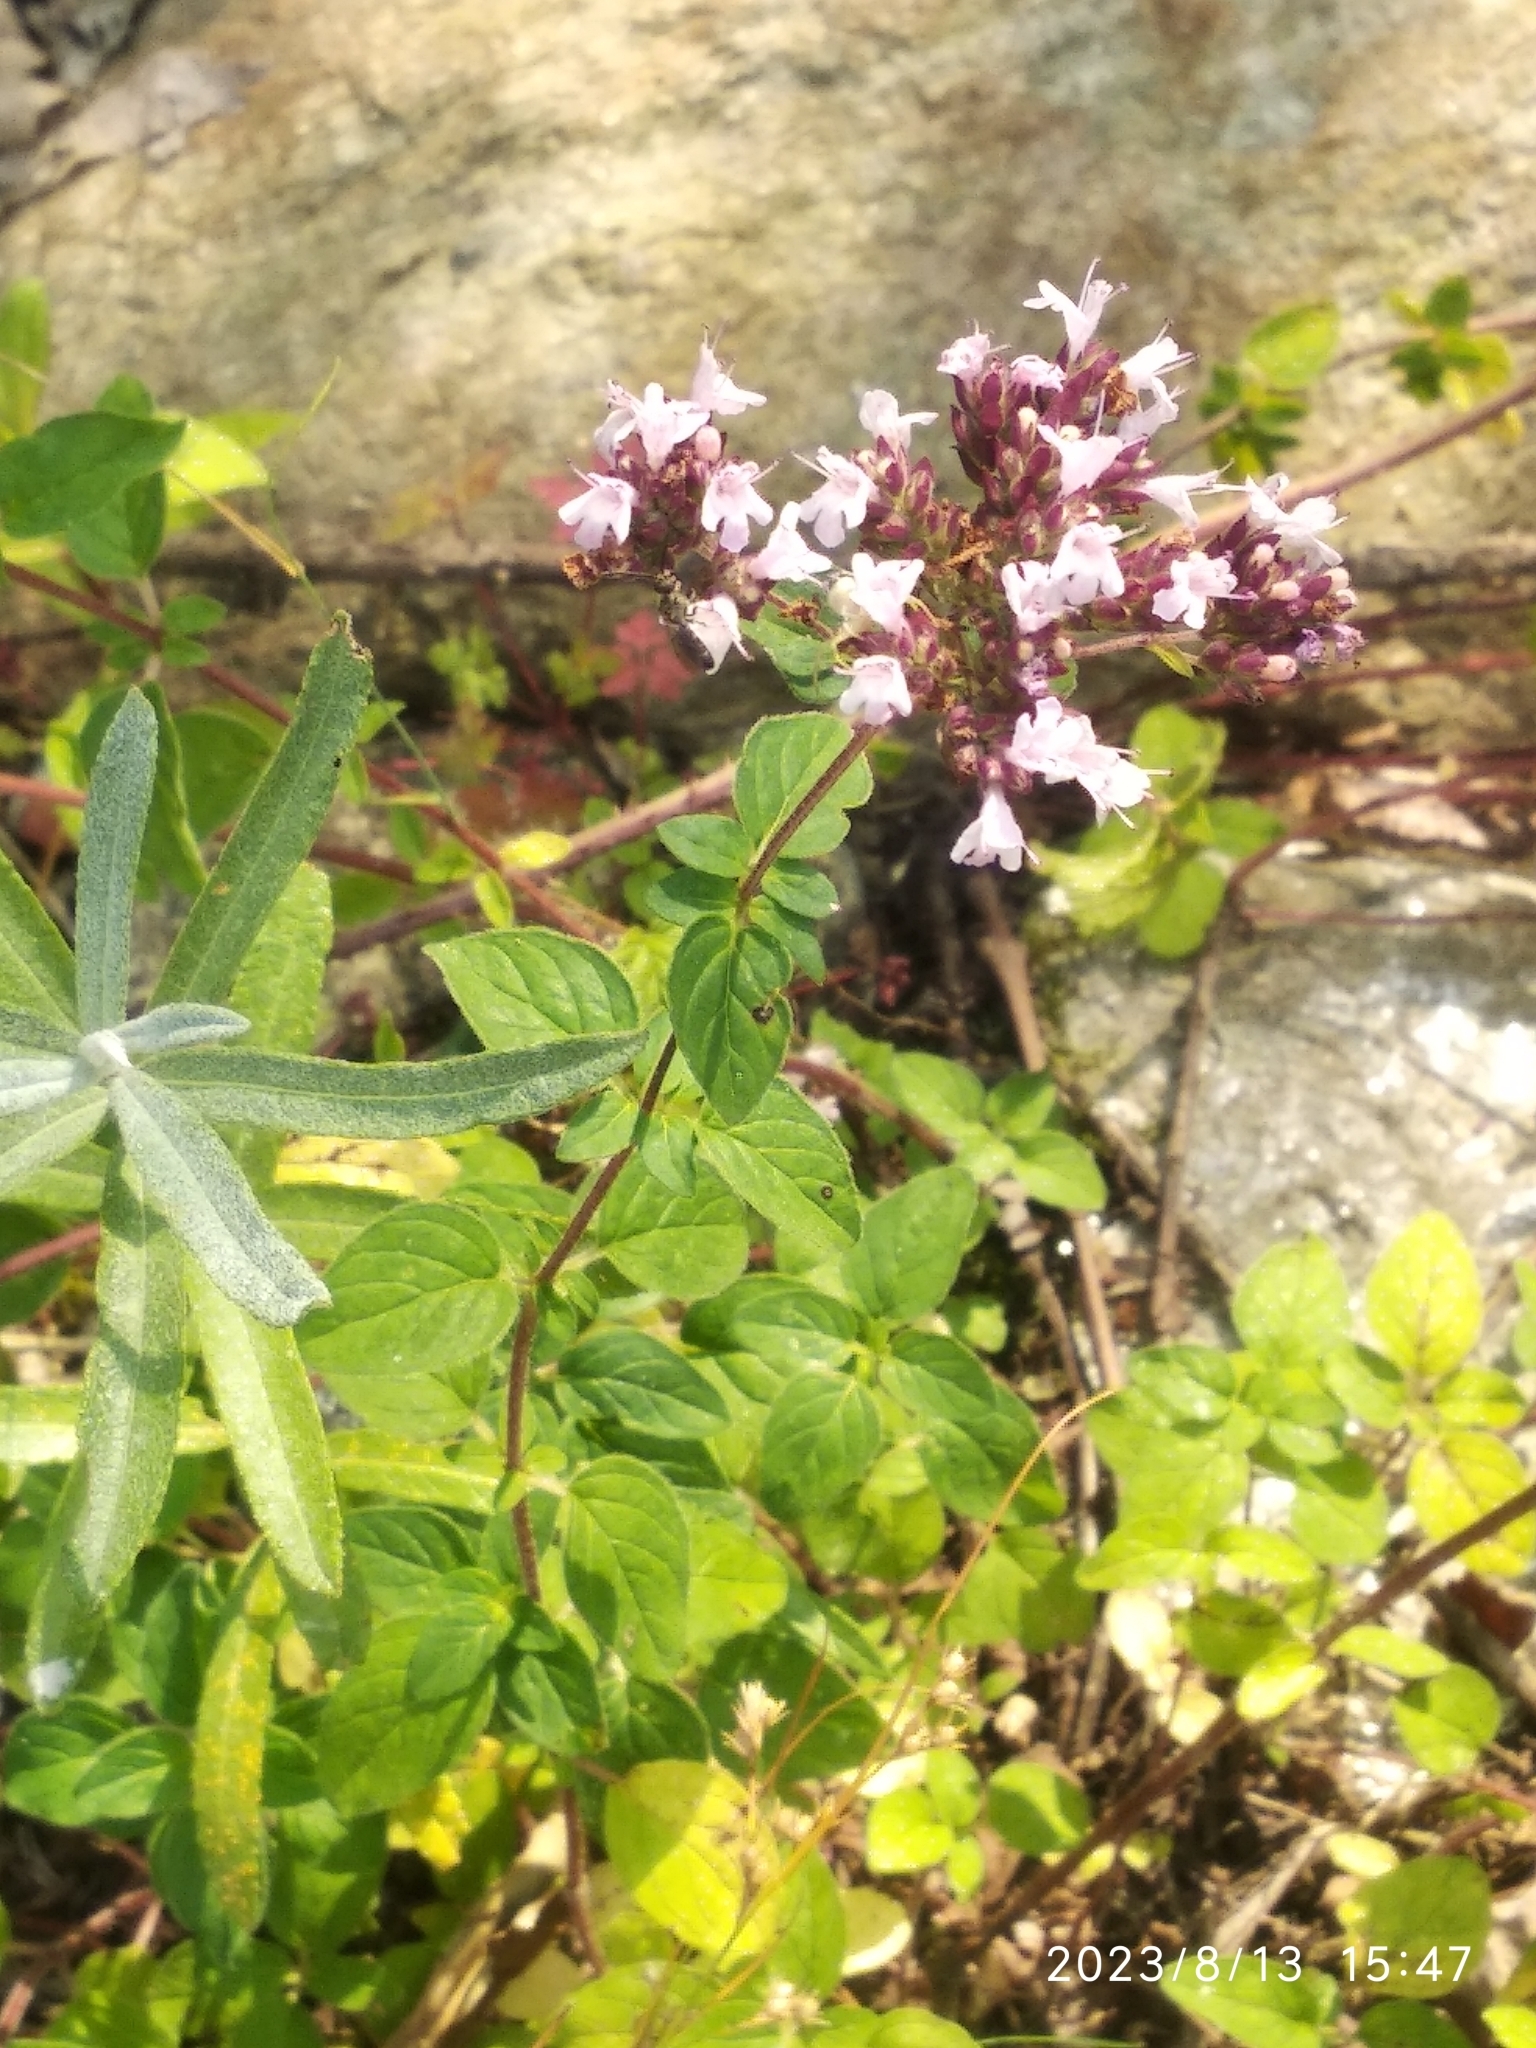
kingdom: Plantae
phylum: Tracheophyta
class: Magnoliopsida
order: Lamiales
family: Lamiaceae
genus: Origanum
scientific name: Origanum vulgare
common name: Wild marjoram
